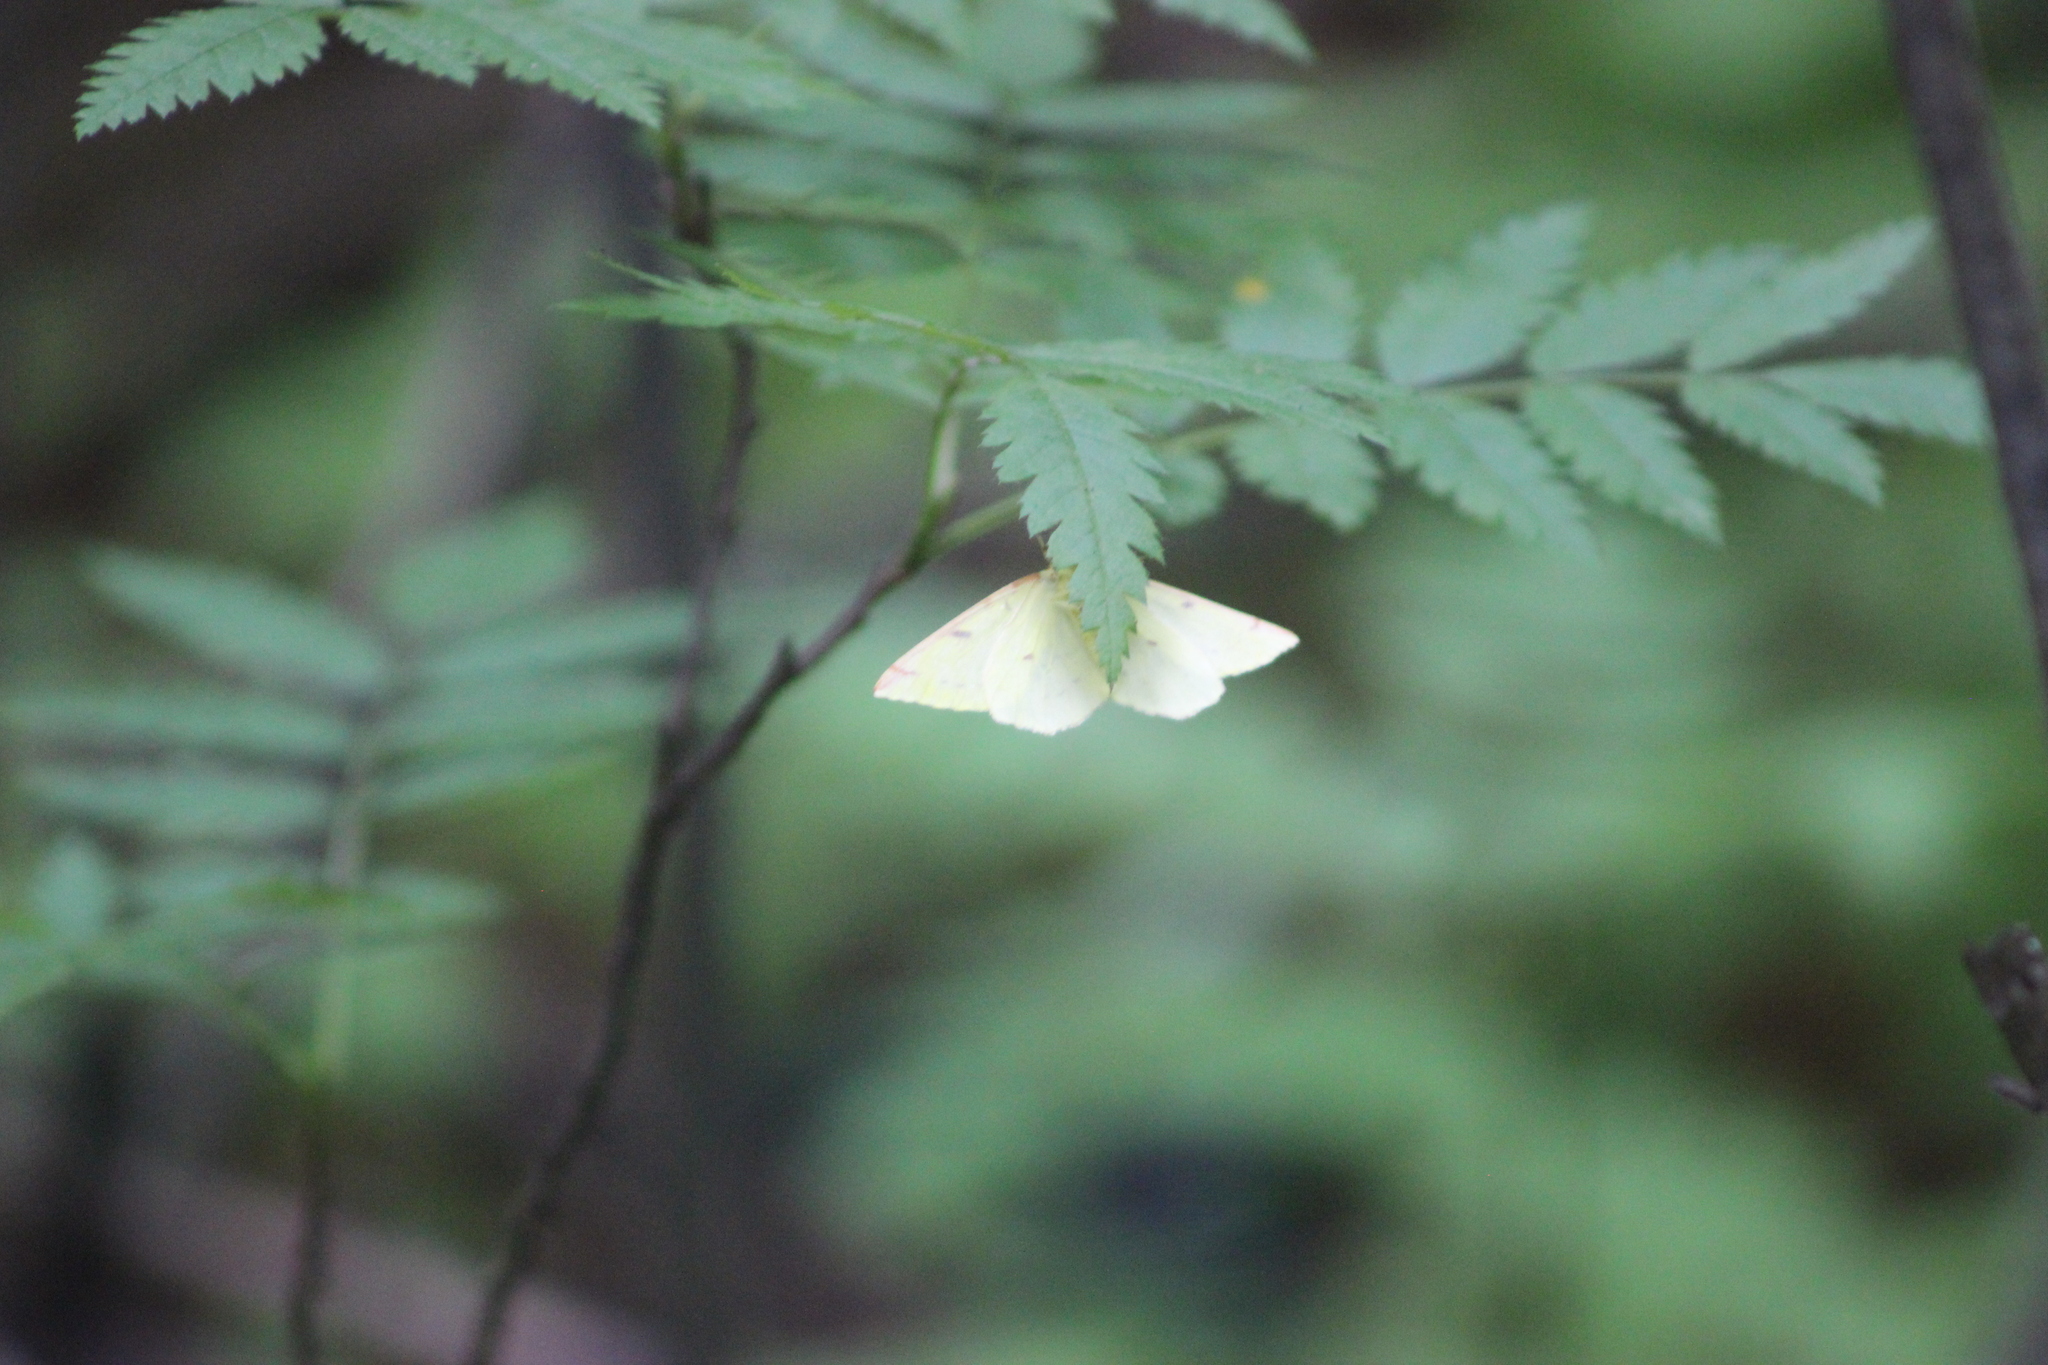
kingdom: Animalia
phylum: Arthropoda
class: Insecta
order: Lepidoptera
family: Geometridae
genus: Opisthograptis
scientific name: Opisthograptis luteolata
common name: Brimstone moth
